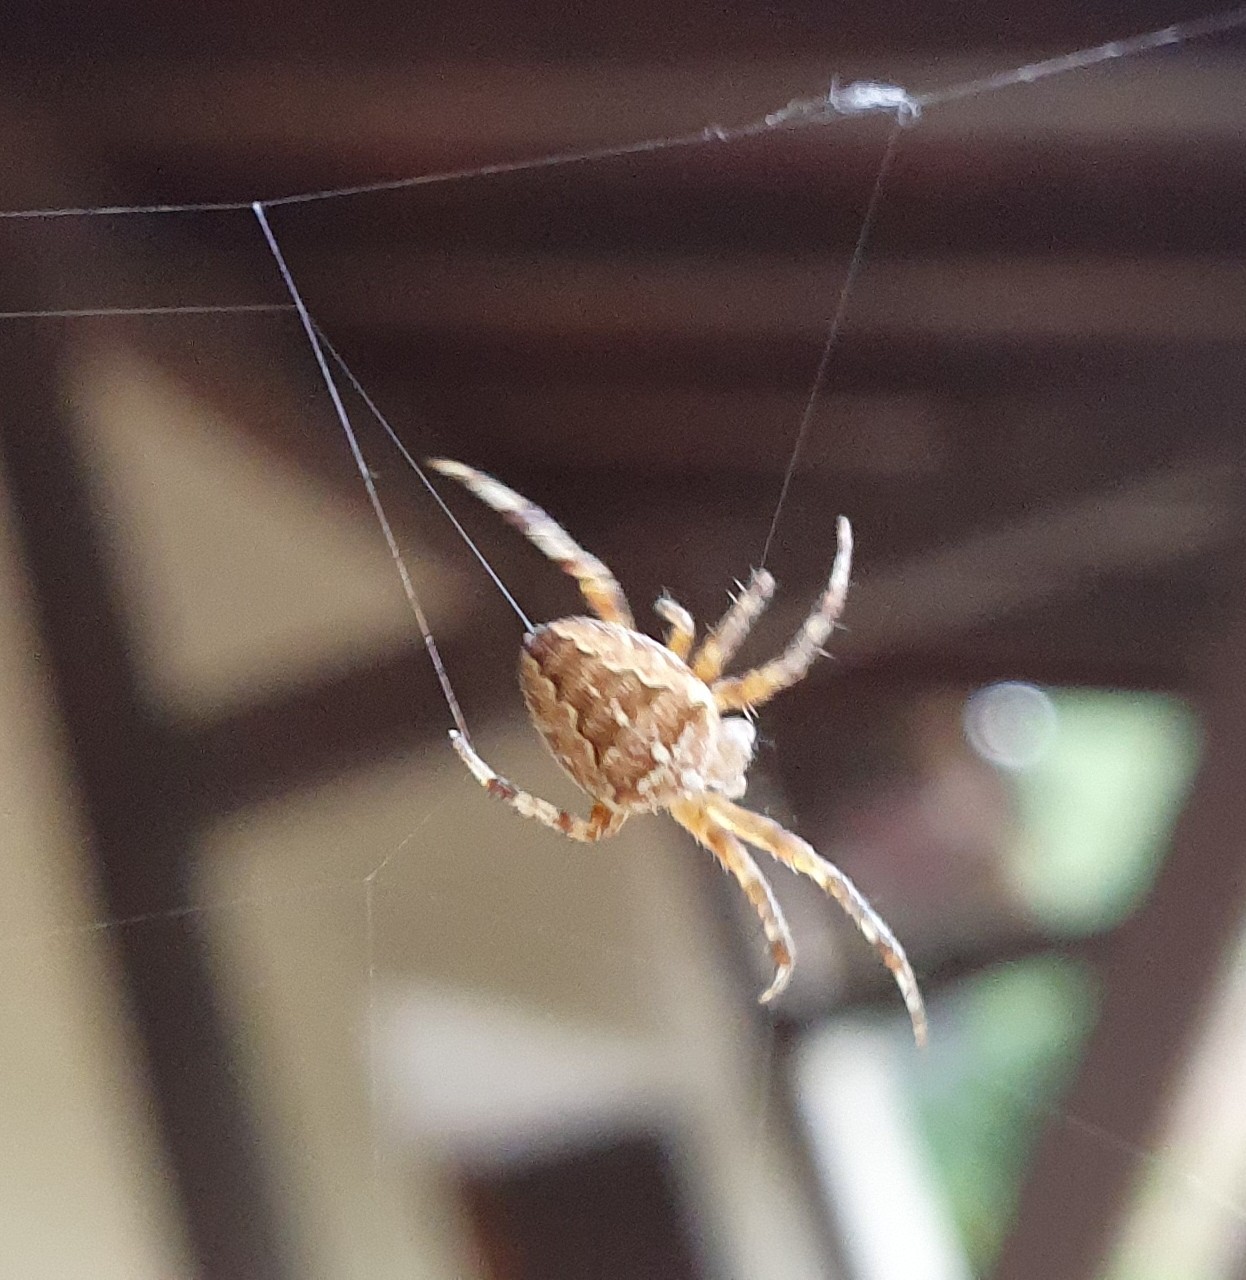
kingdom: Animalia
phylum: Arthropoda
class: Arachnida
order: Araneae
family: Araneidae
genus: Araneus
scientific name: Araneus diadematus
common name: Cross orbweaver
